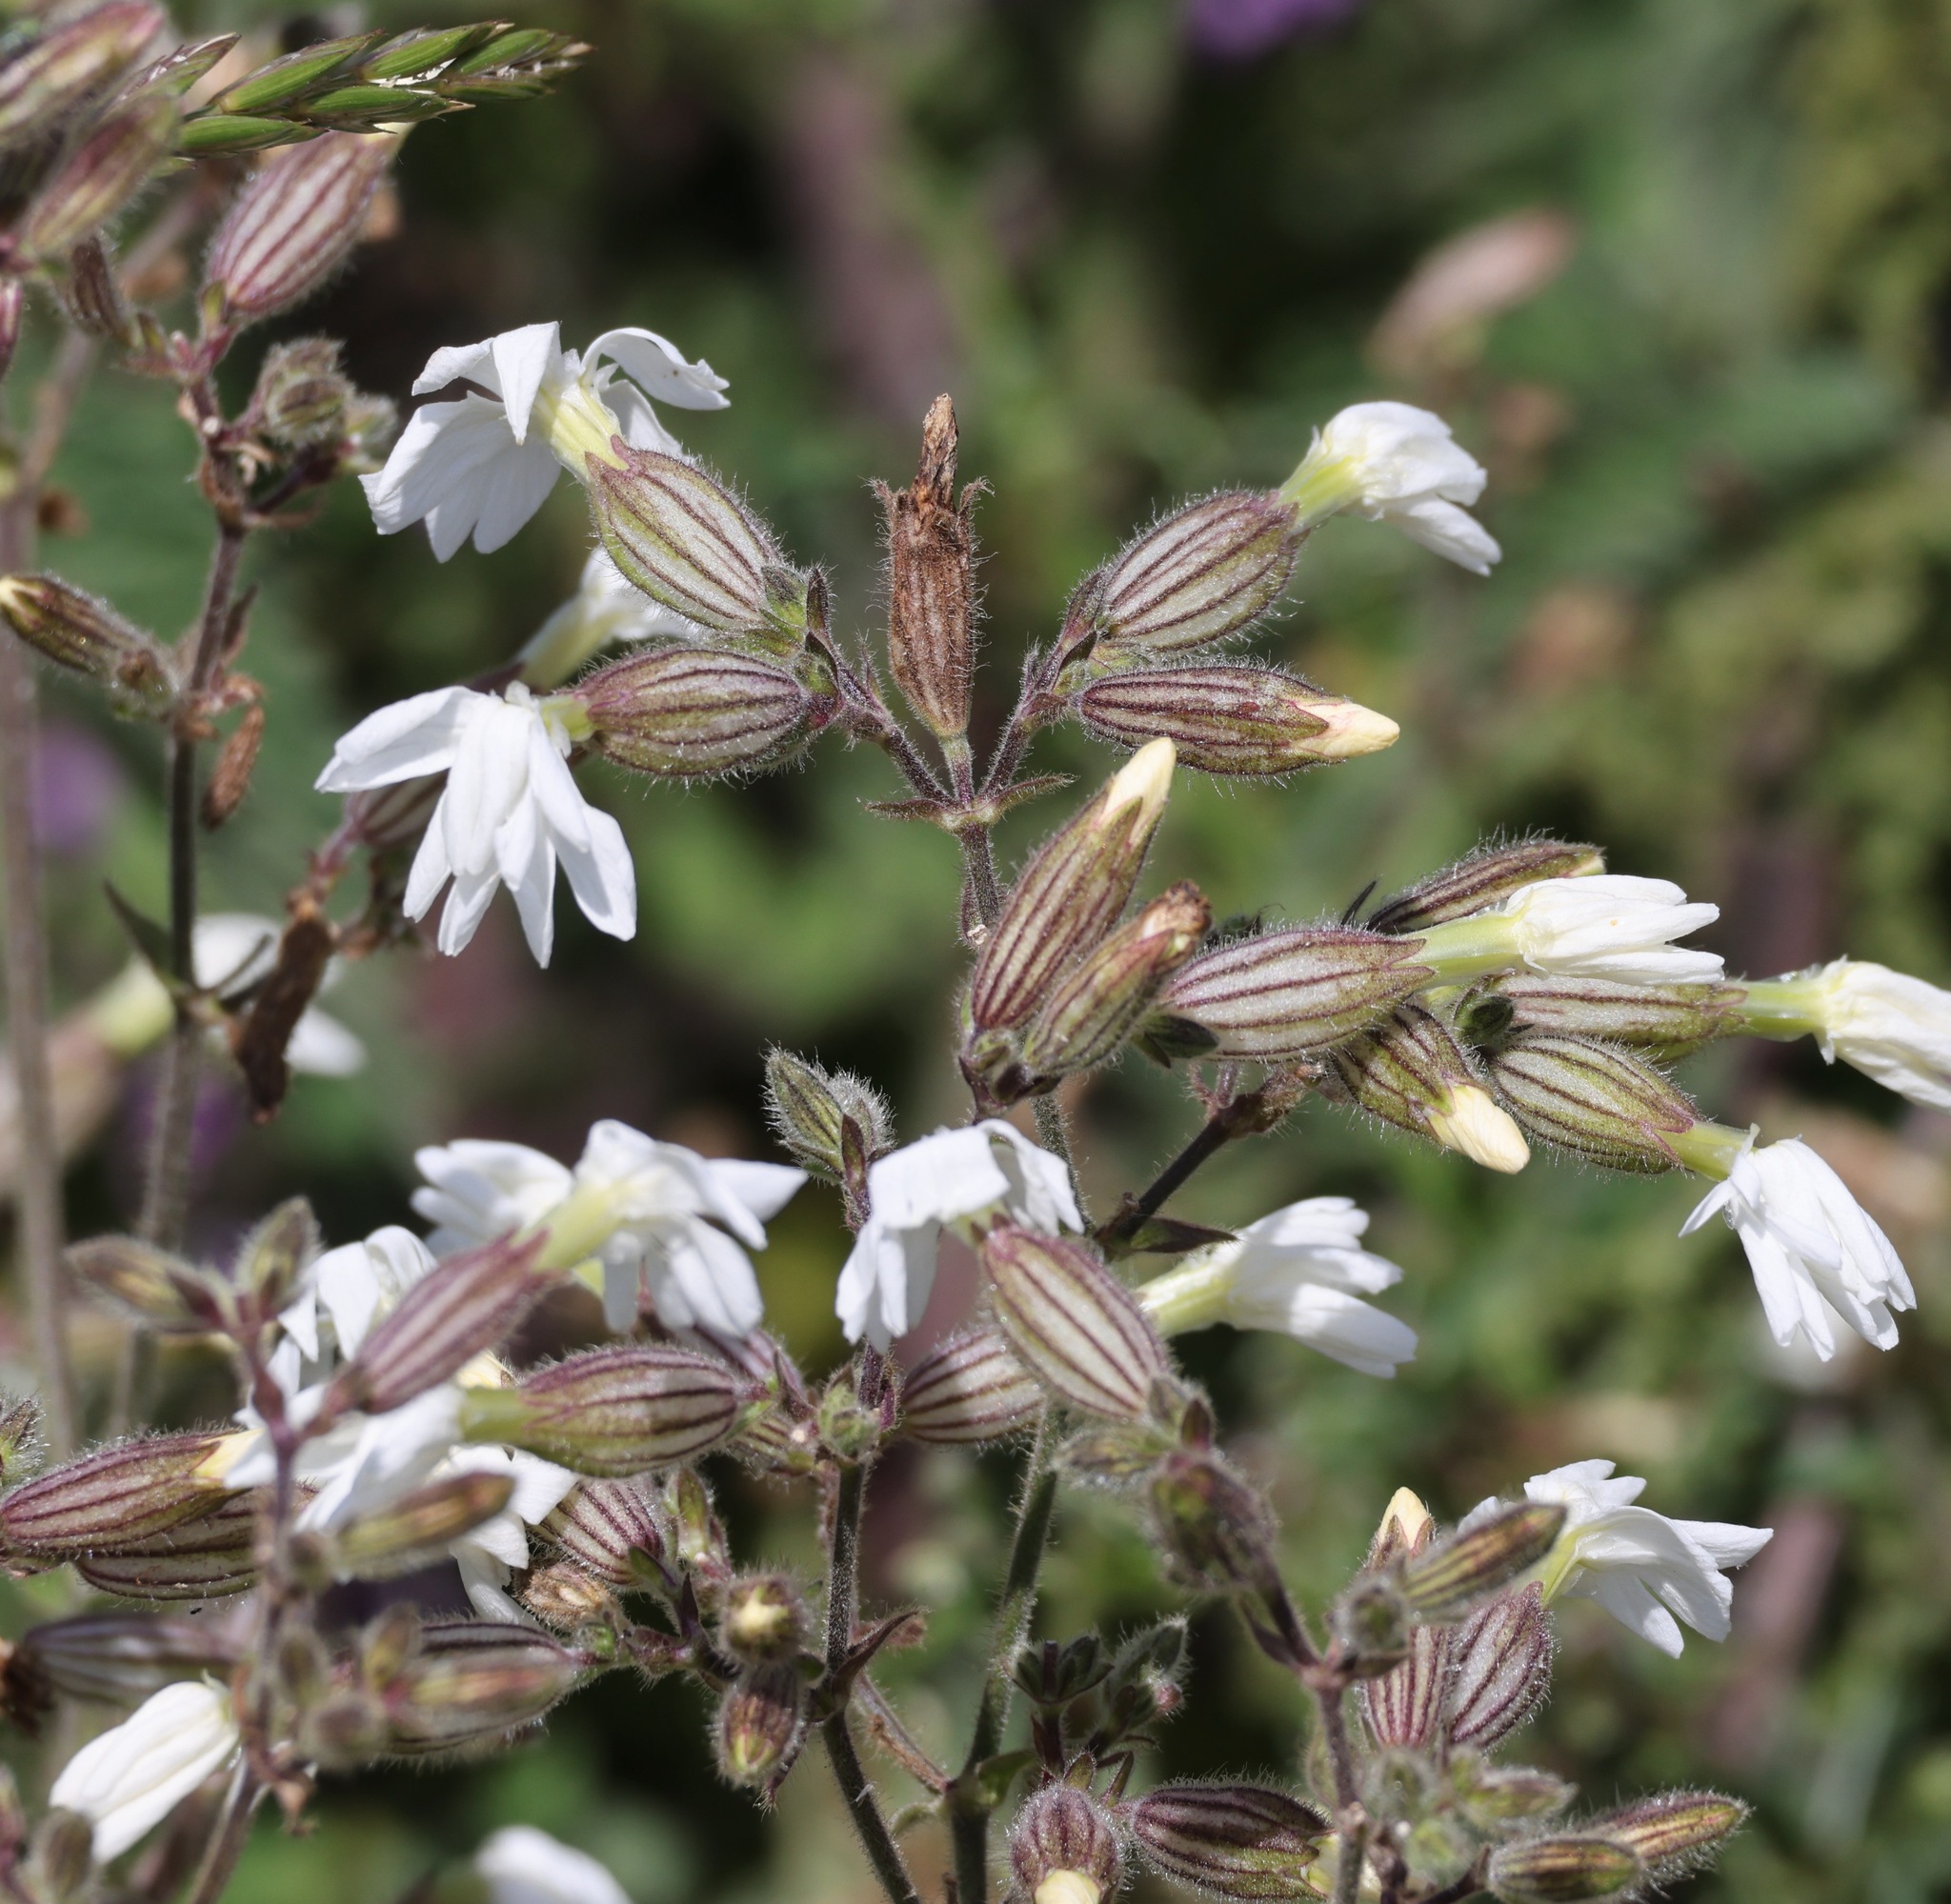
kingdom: Plantae
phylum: Tracheophyta
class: Magnoliopsida
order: Caryophyllales
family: Caryophyllaceae
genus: Silene
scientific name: Silene latifolia
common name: White campion
